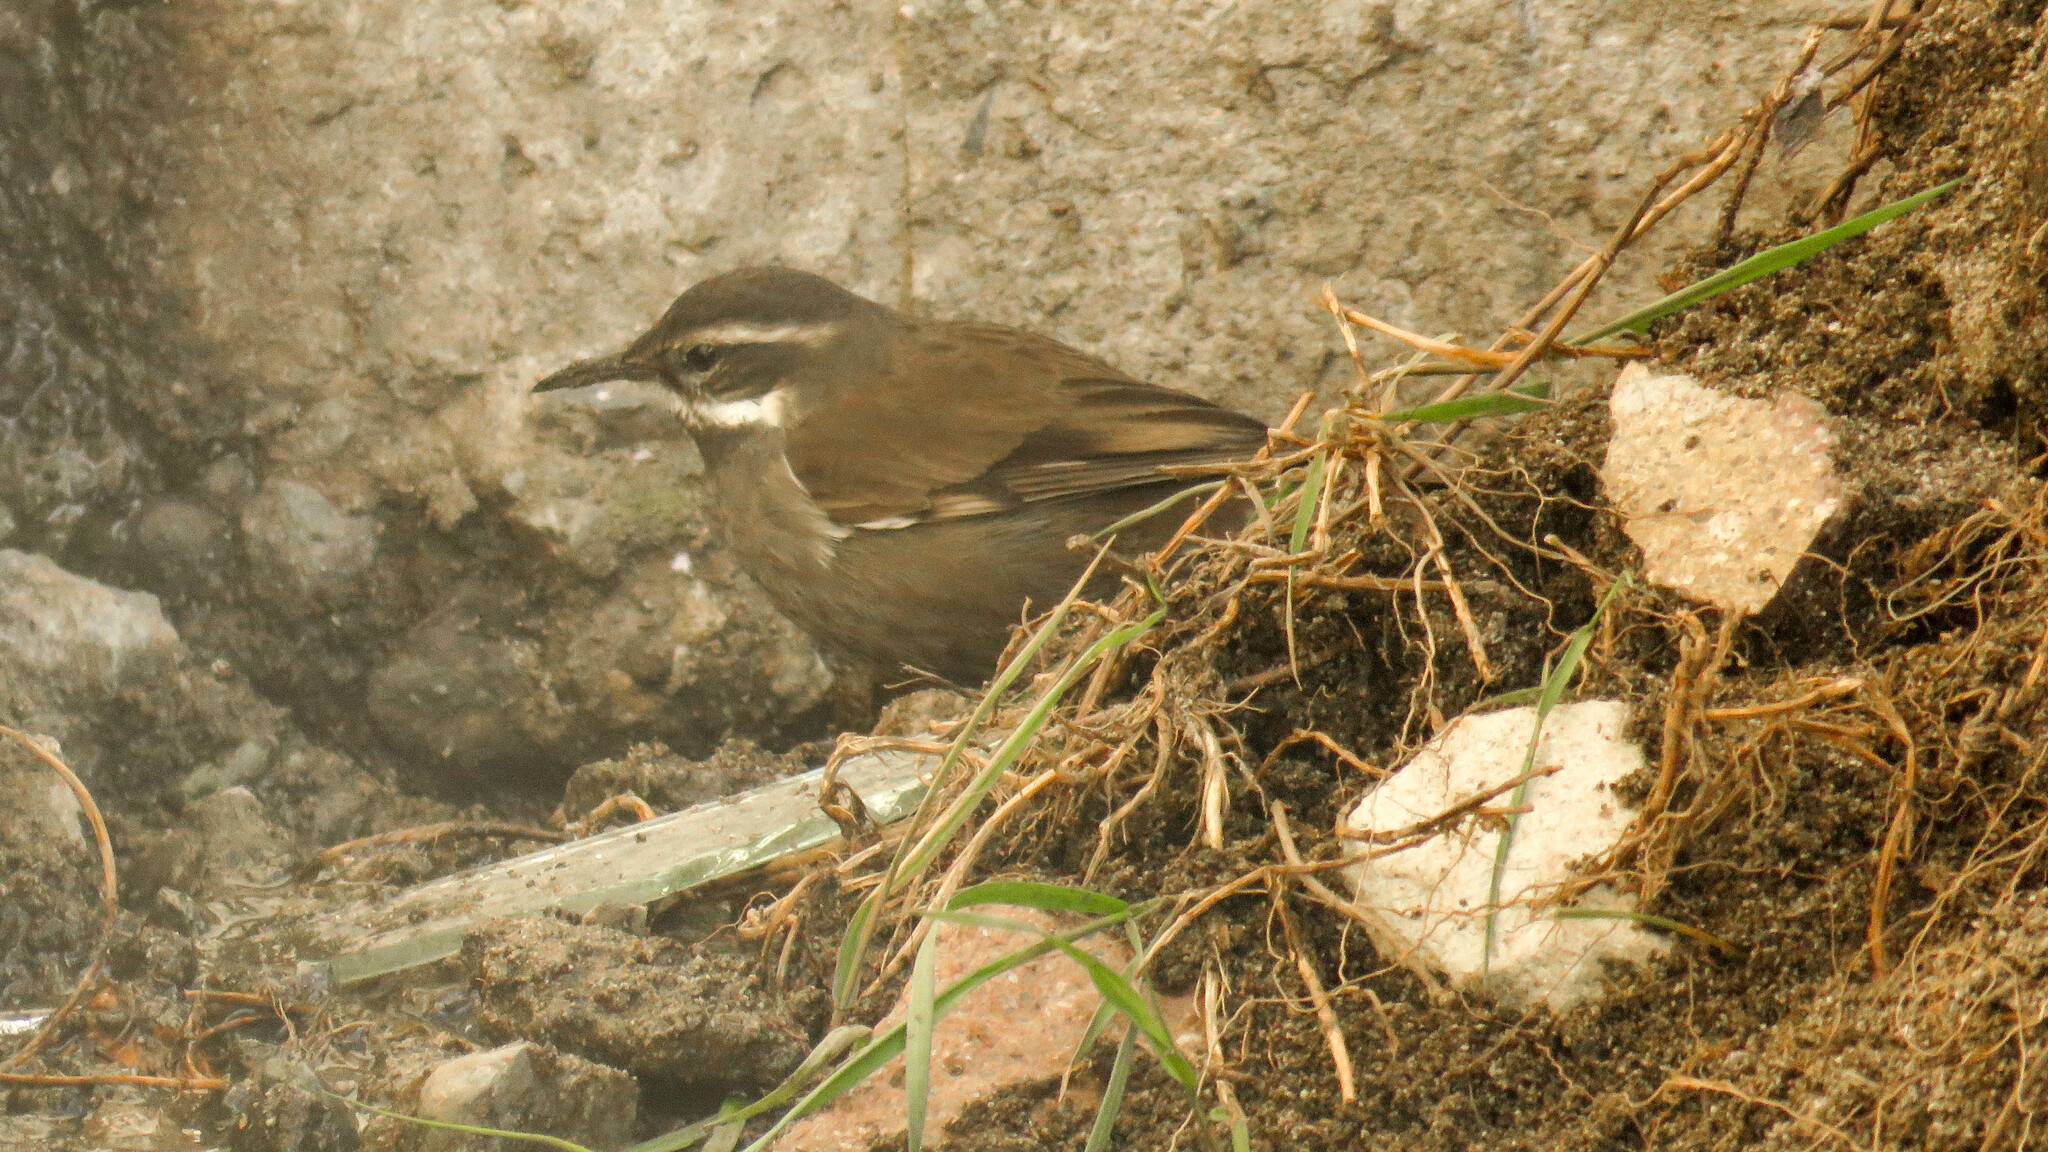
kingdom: Animalia
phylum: Chordata
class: Aves
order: Passeriformes
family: Furnariidae
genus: Cinclodes
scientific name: Cinclodes oustaleti
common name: Grey-flanked cinclodes
